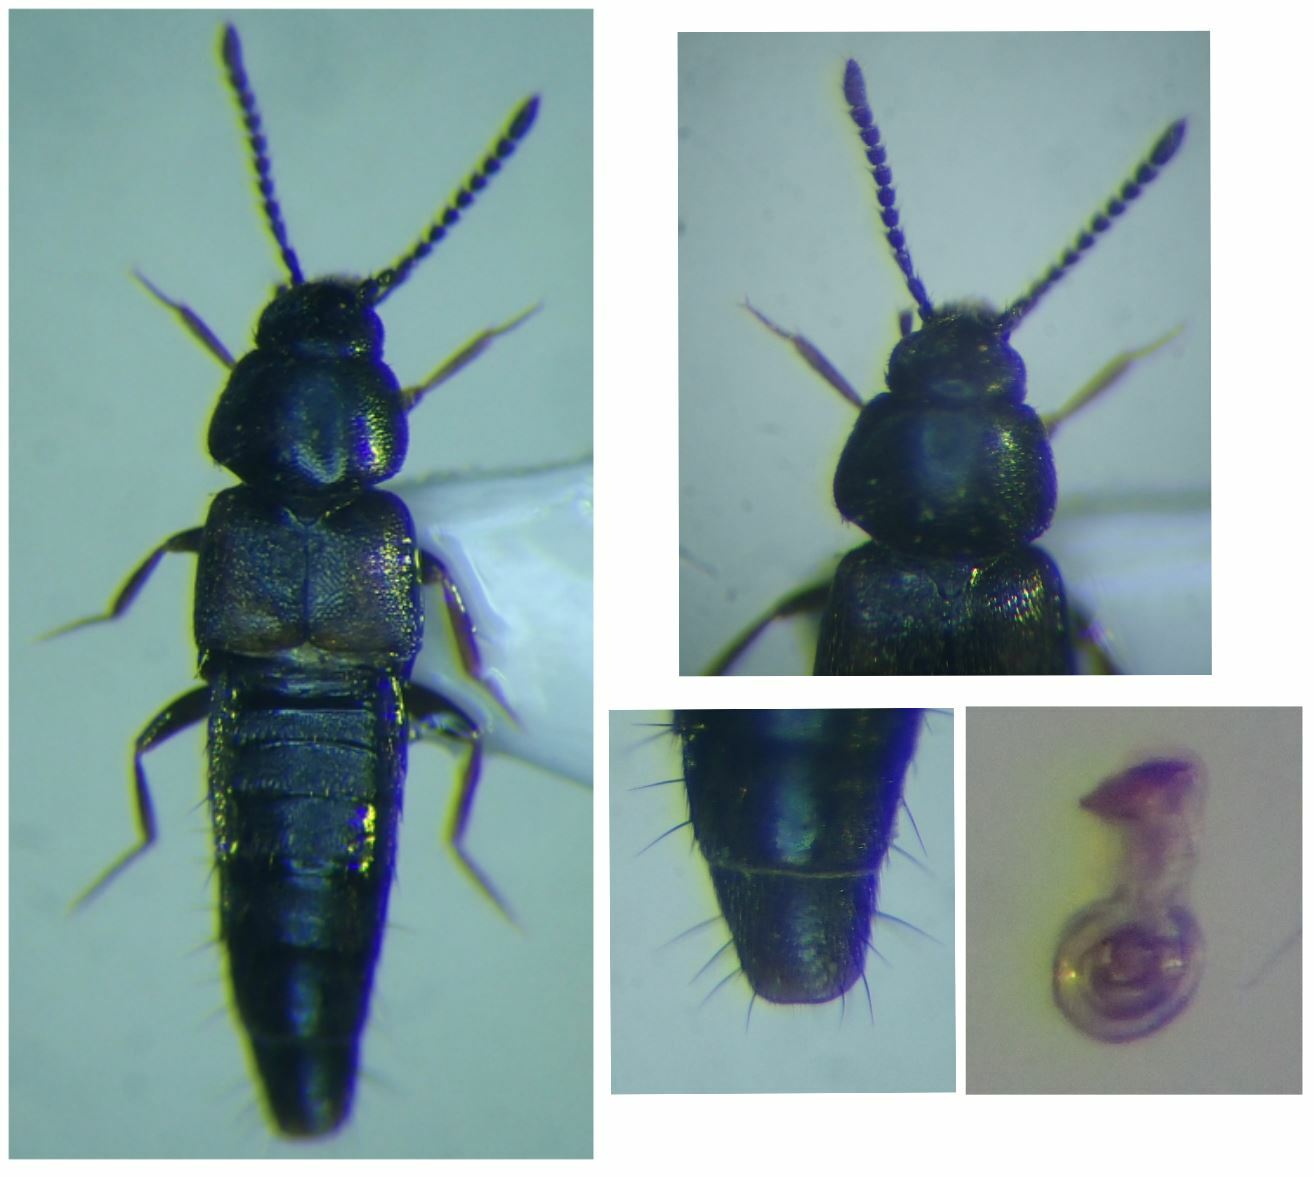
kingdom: Animalia
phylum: Arthropoda
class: Insecta
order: Coleoptera
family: Staphylinidae
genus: Atheta
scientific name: Atheta melanaria
